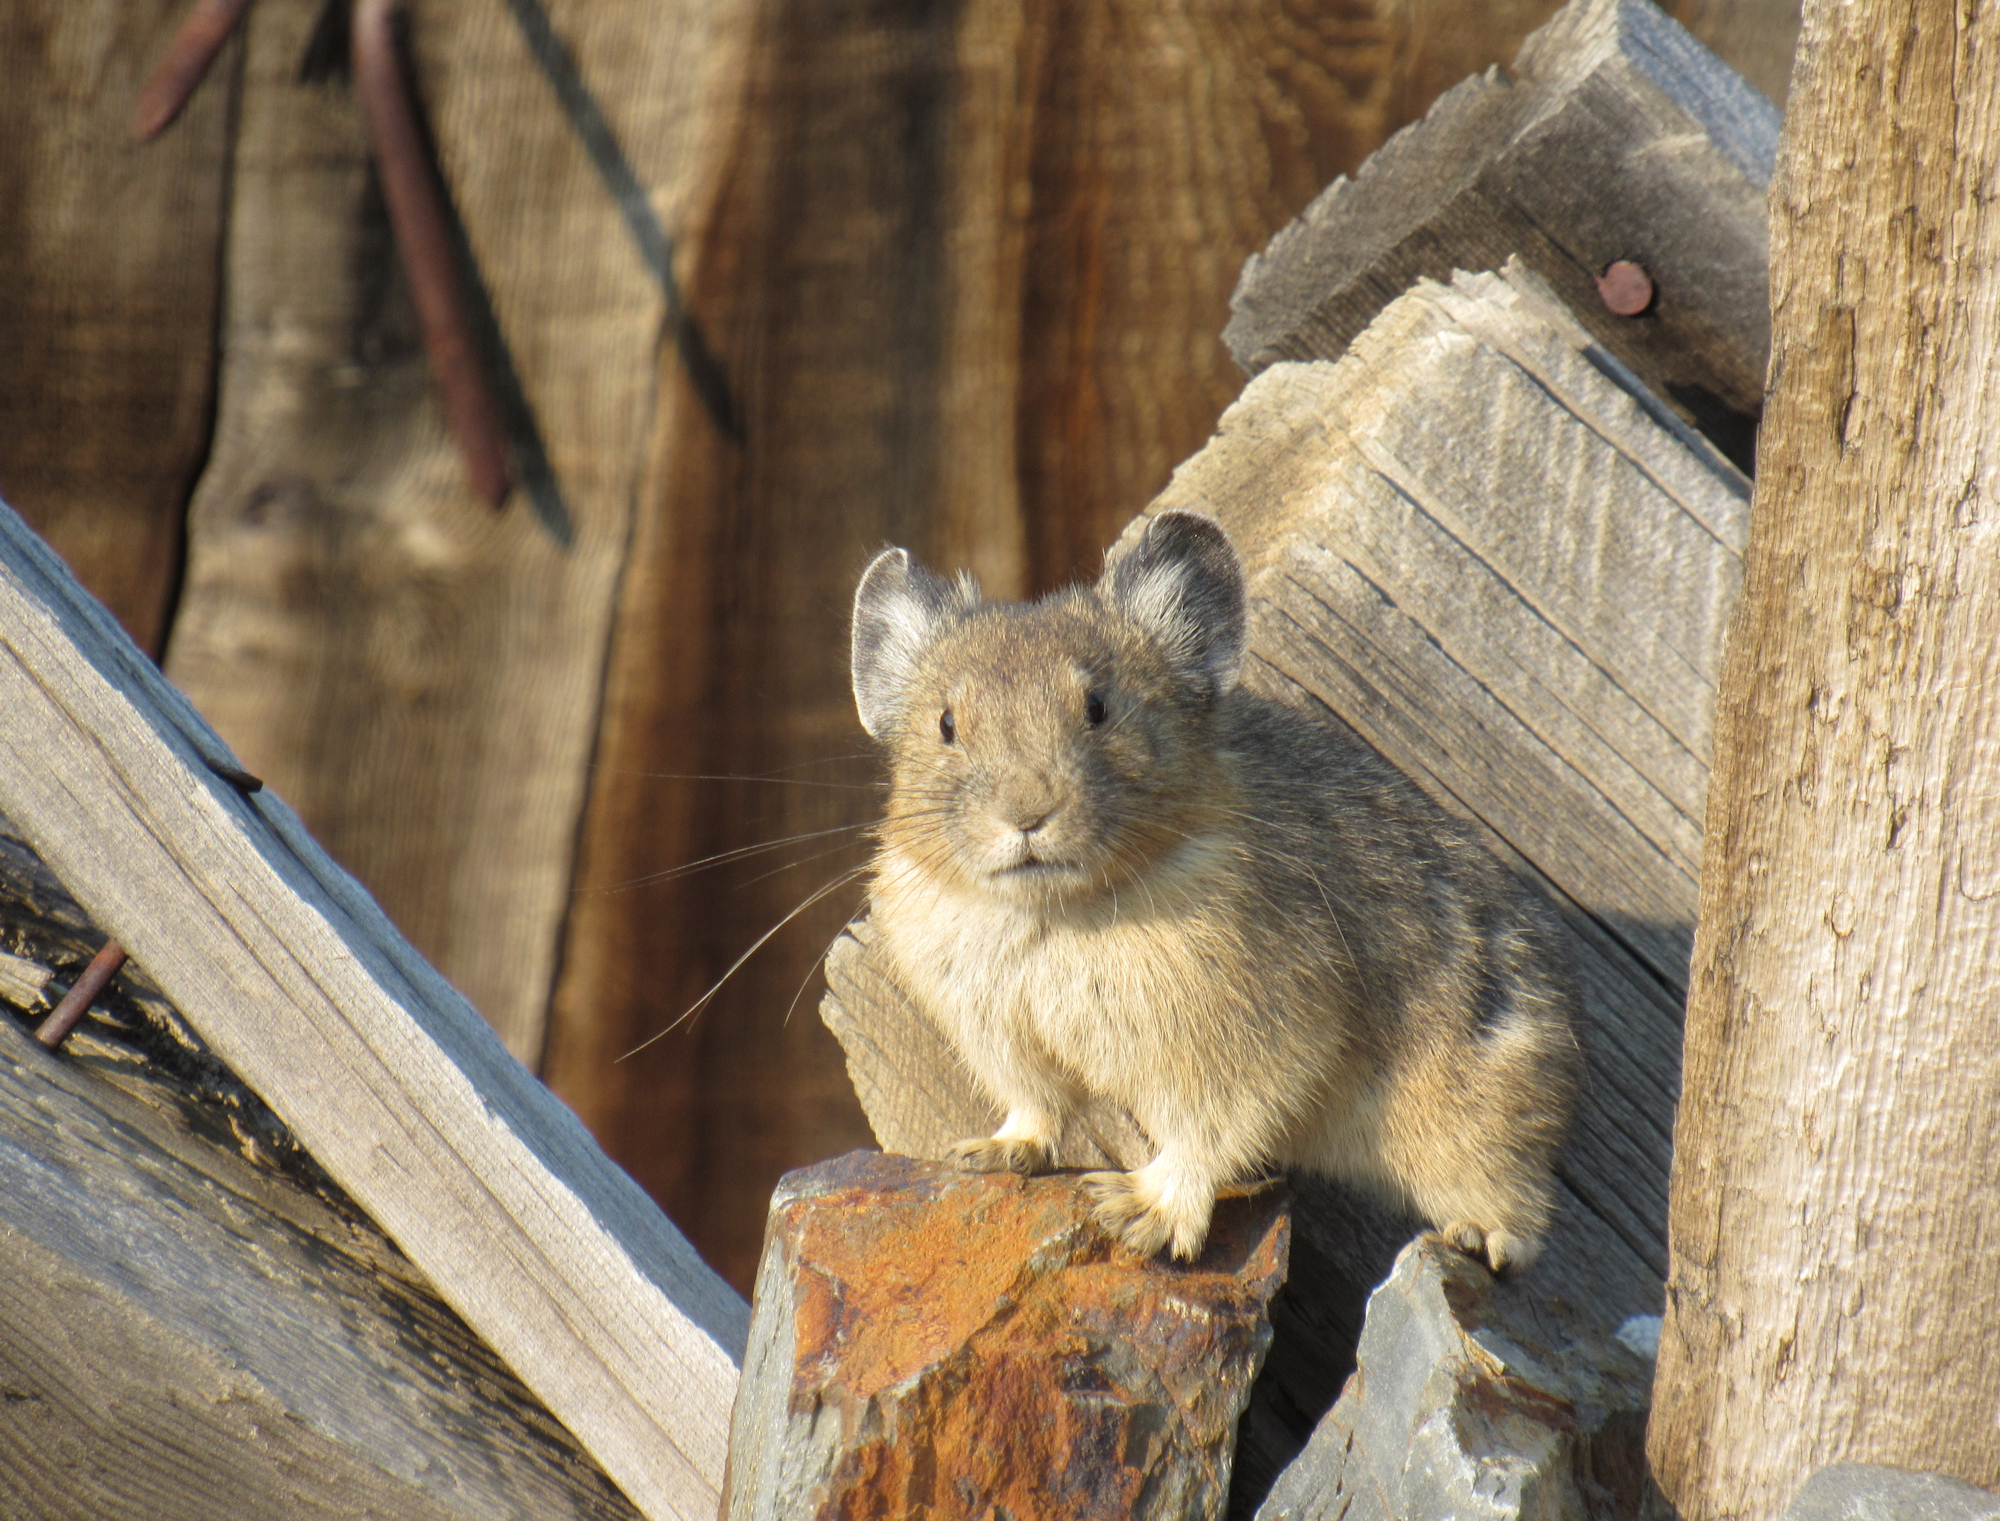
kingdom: Animalia
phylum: Chordata
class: Mammalia
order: Lagomorpha
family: Ochotonidae
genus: Ochotona
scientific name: Ochotona princeps
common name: American pika
